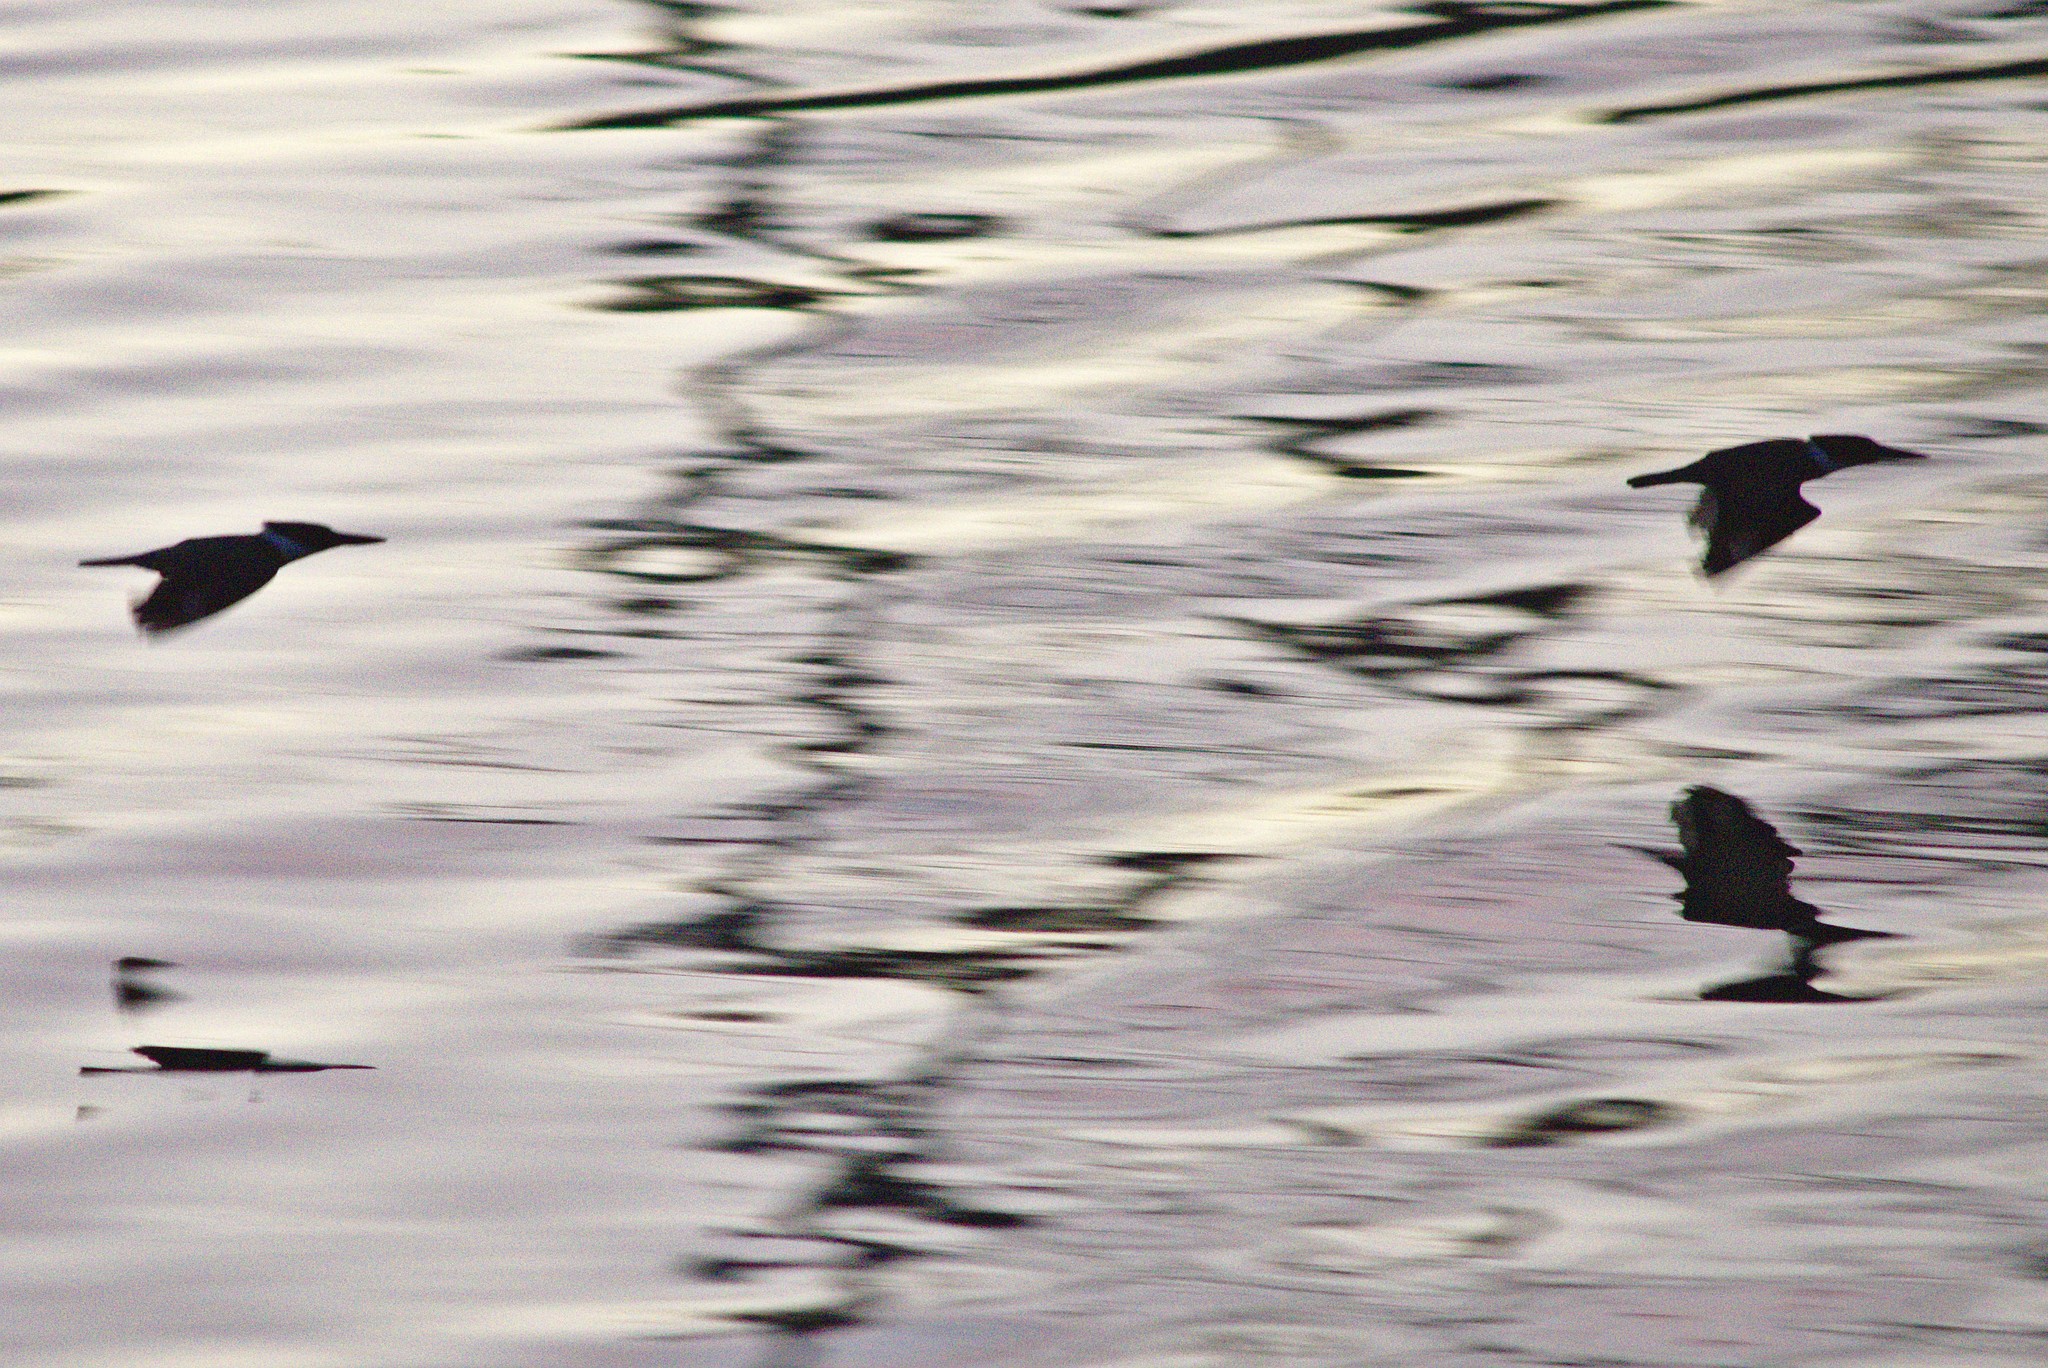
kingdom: Animalia
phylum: Chordata
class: Aves
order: Coraciiformes
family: Alcedinidae
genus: Megaceryle
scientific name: Megaceryle alcyon
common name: Belted kingfisher
